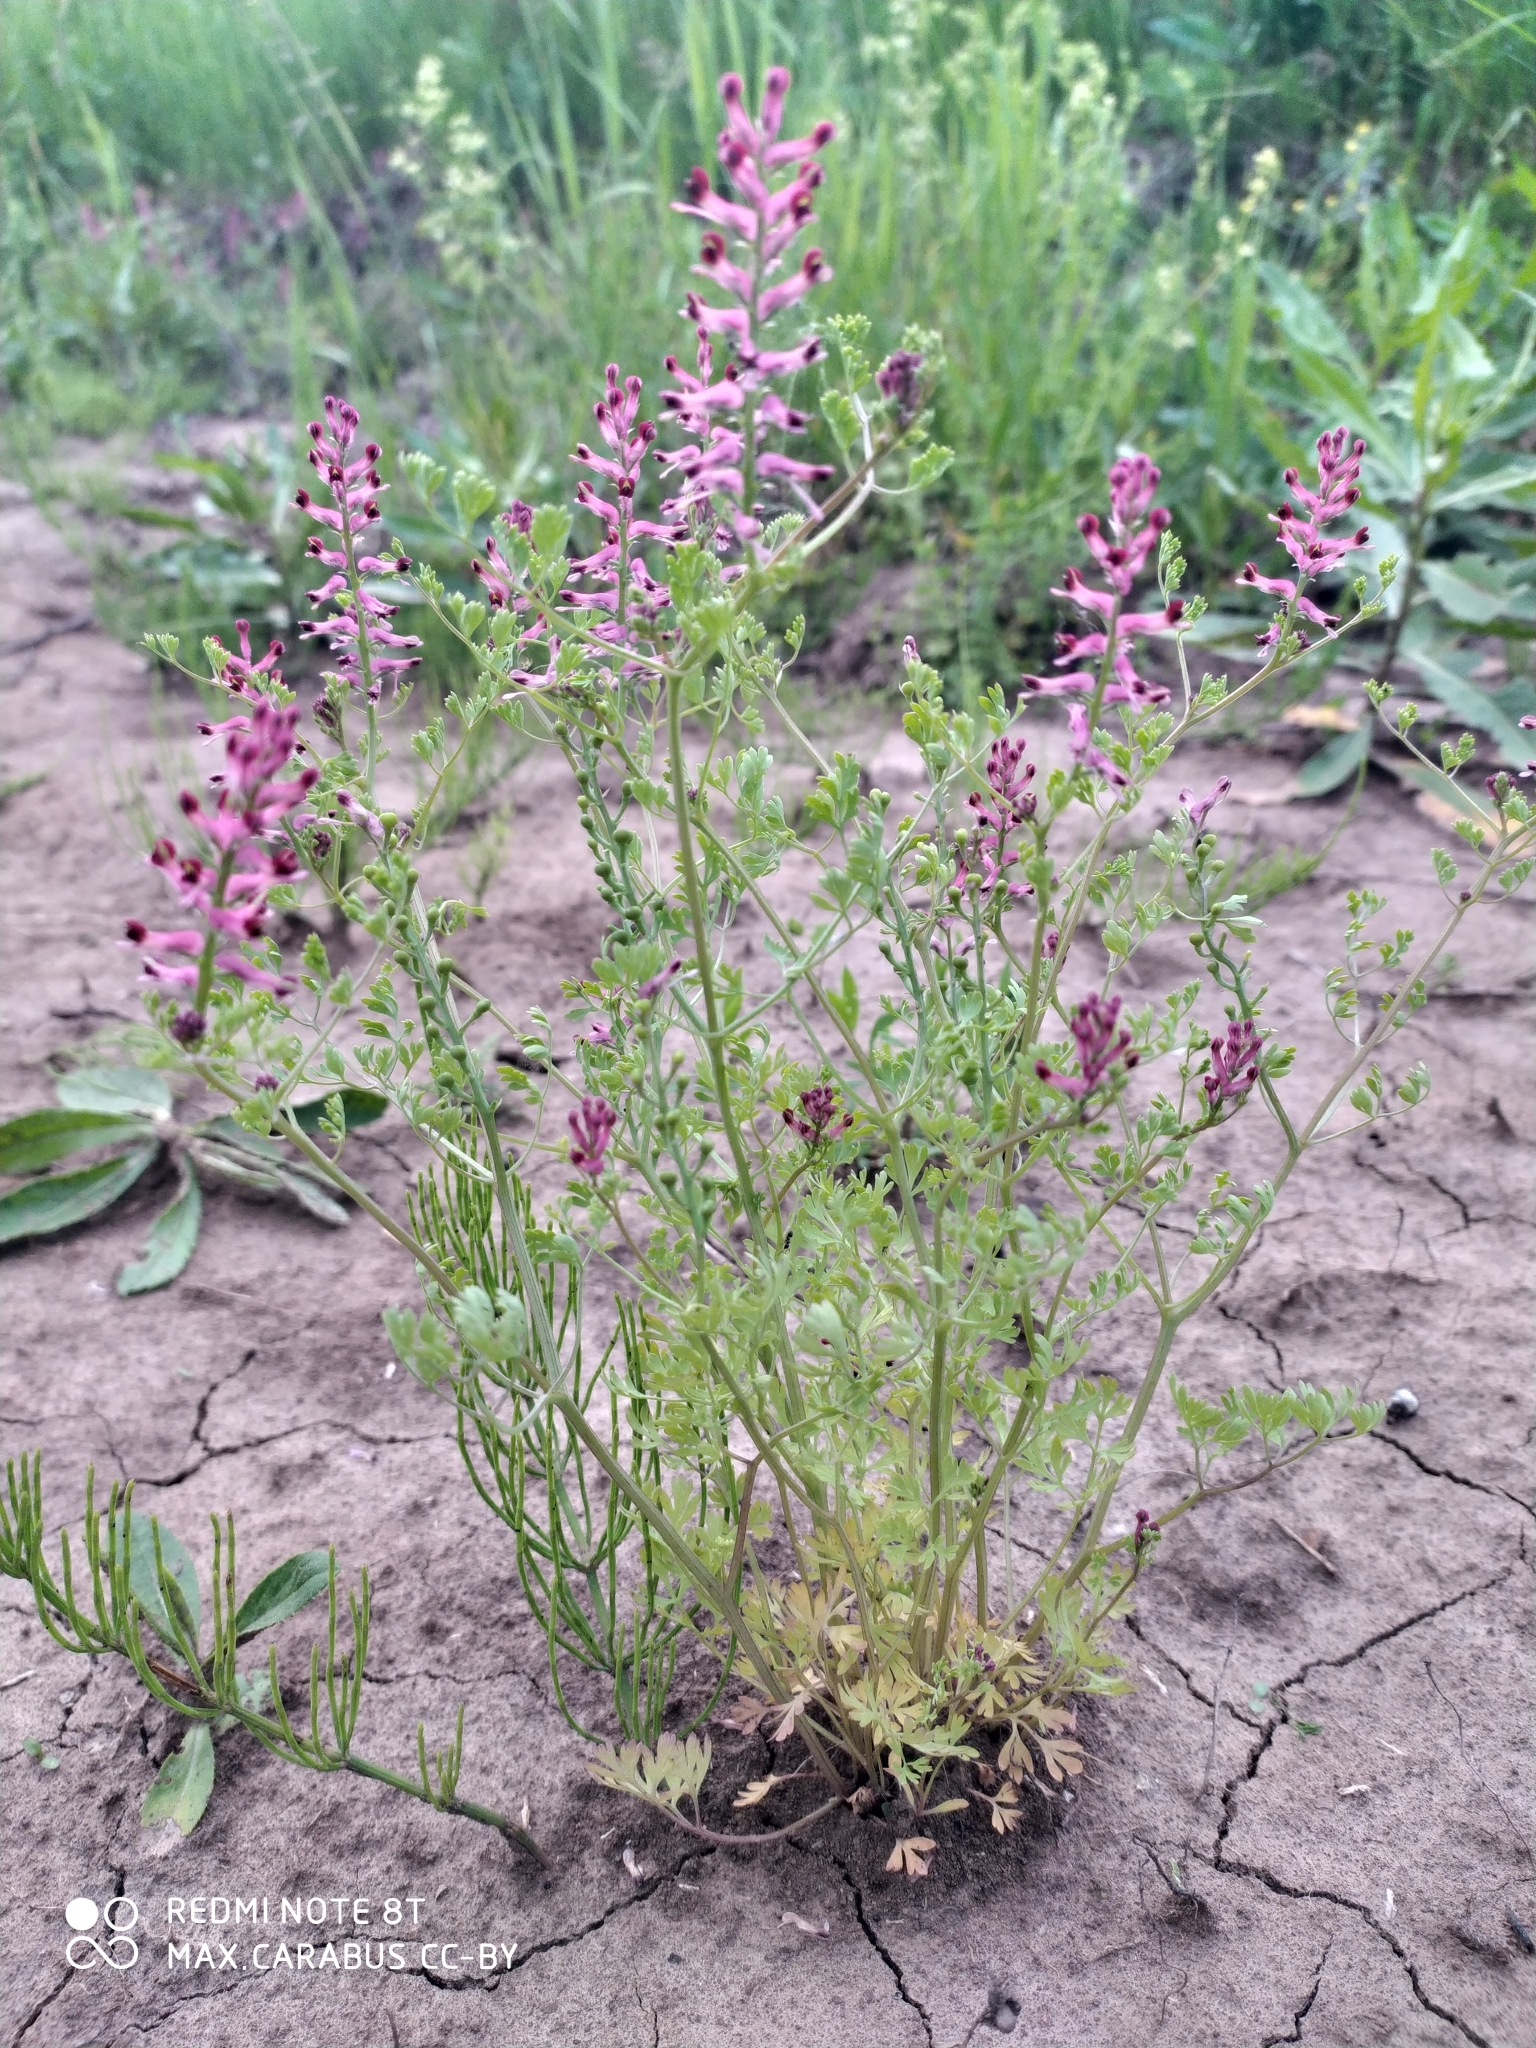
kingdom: Plantae
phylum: Tracheophyta
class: Magnoliopsida
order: Ranunculales
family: Papaveraceae
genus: Fumaria
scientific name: Fumaria officinalis
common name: Common fumitory
